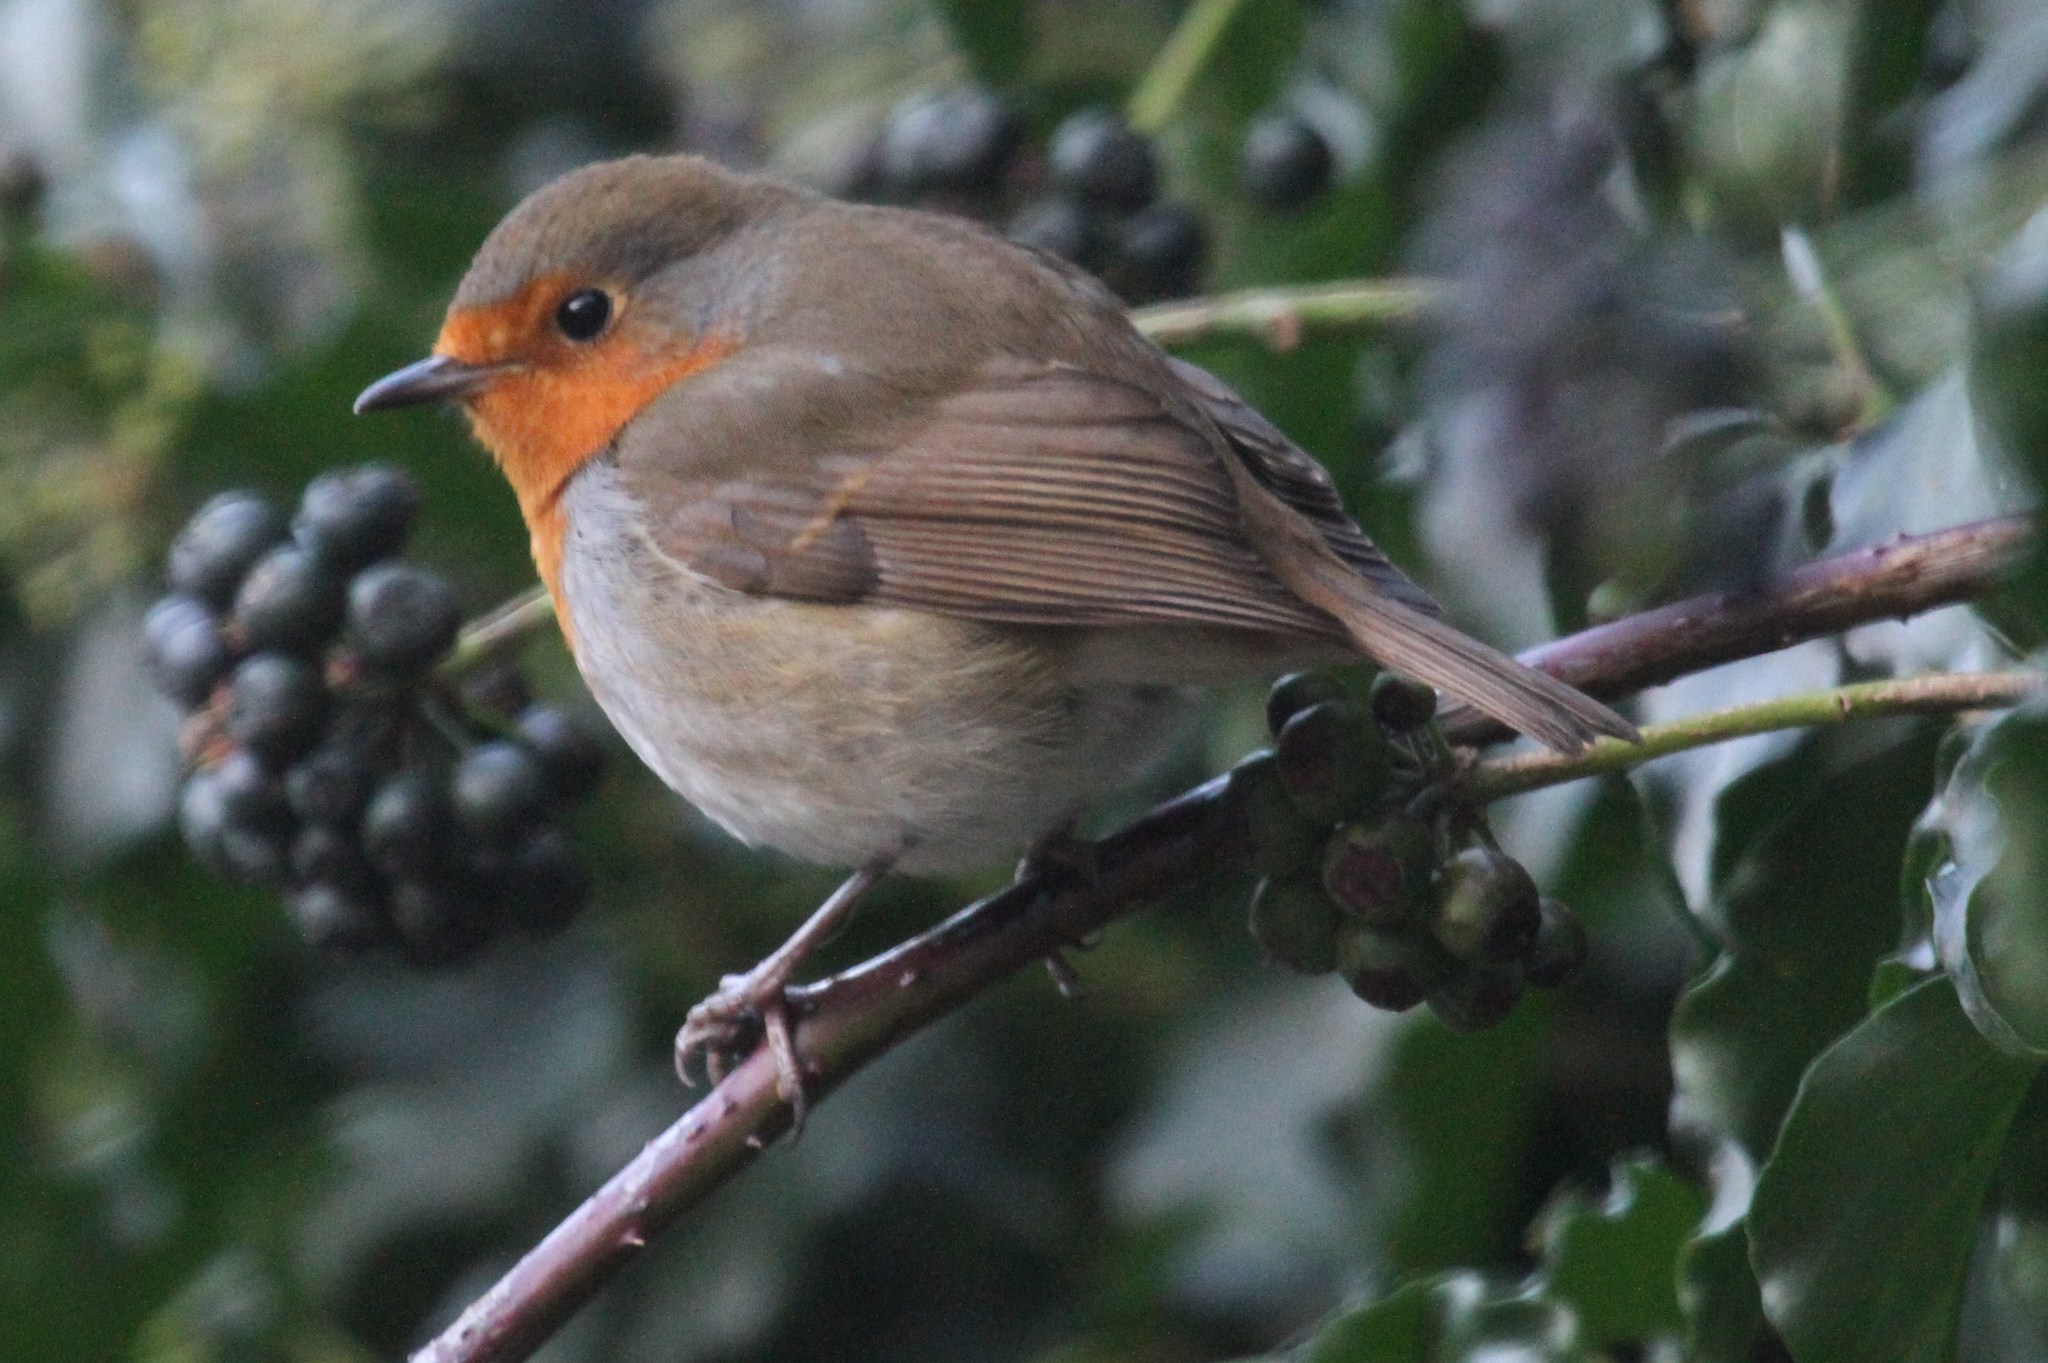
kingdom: Animalia
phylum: Chordata
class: Aves
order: Passeriformes
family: Muscicapidae
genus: Erithacus
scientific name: Erithacus rubecula
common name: European robin
